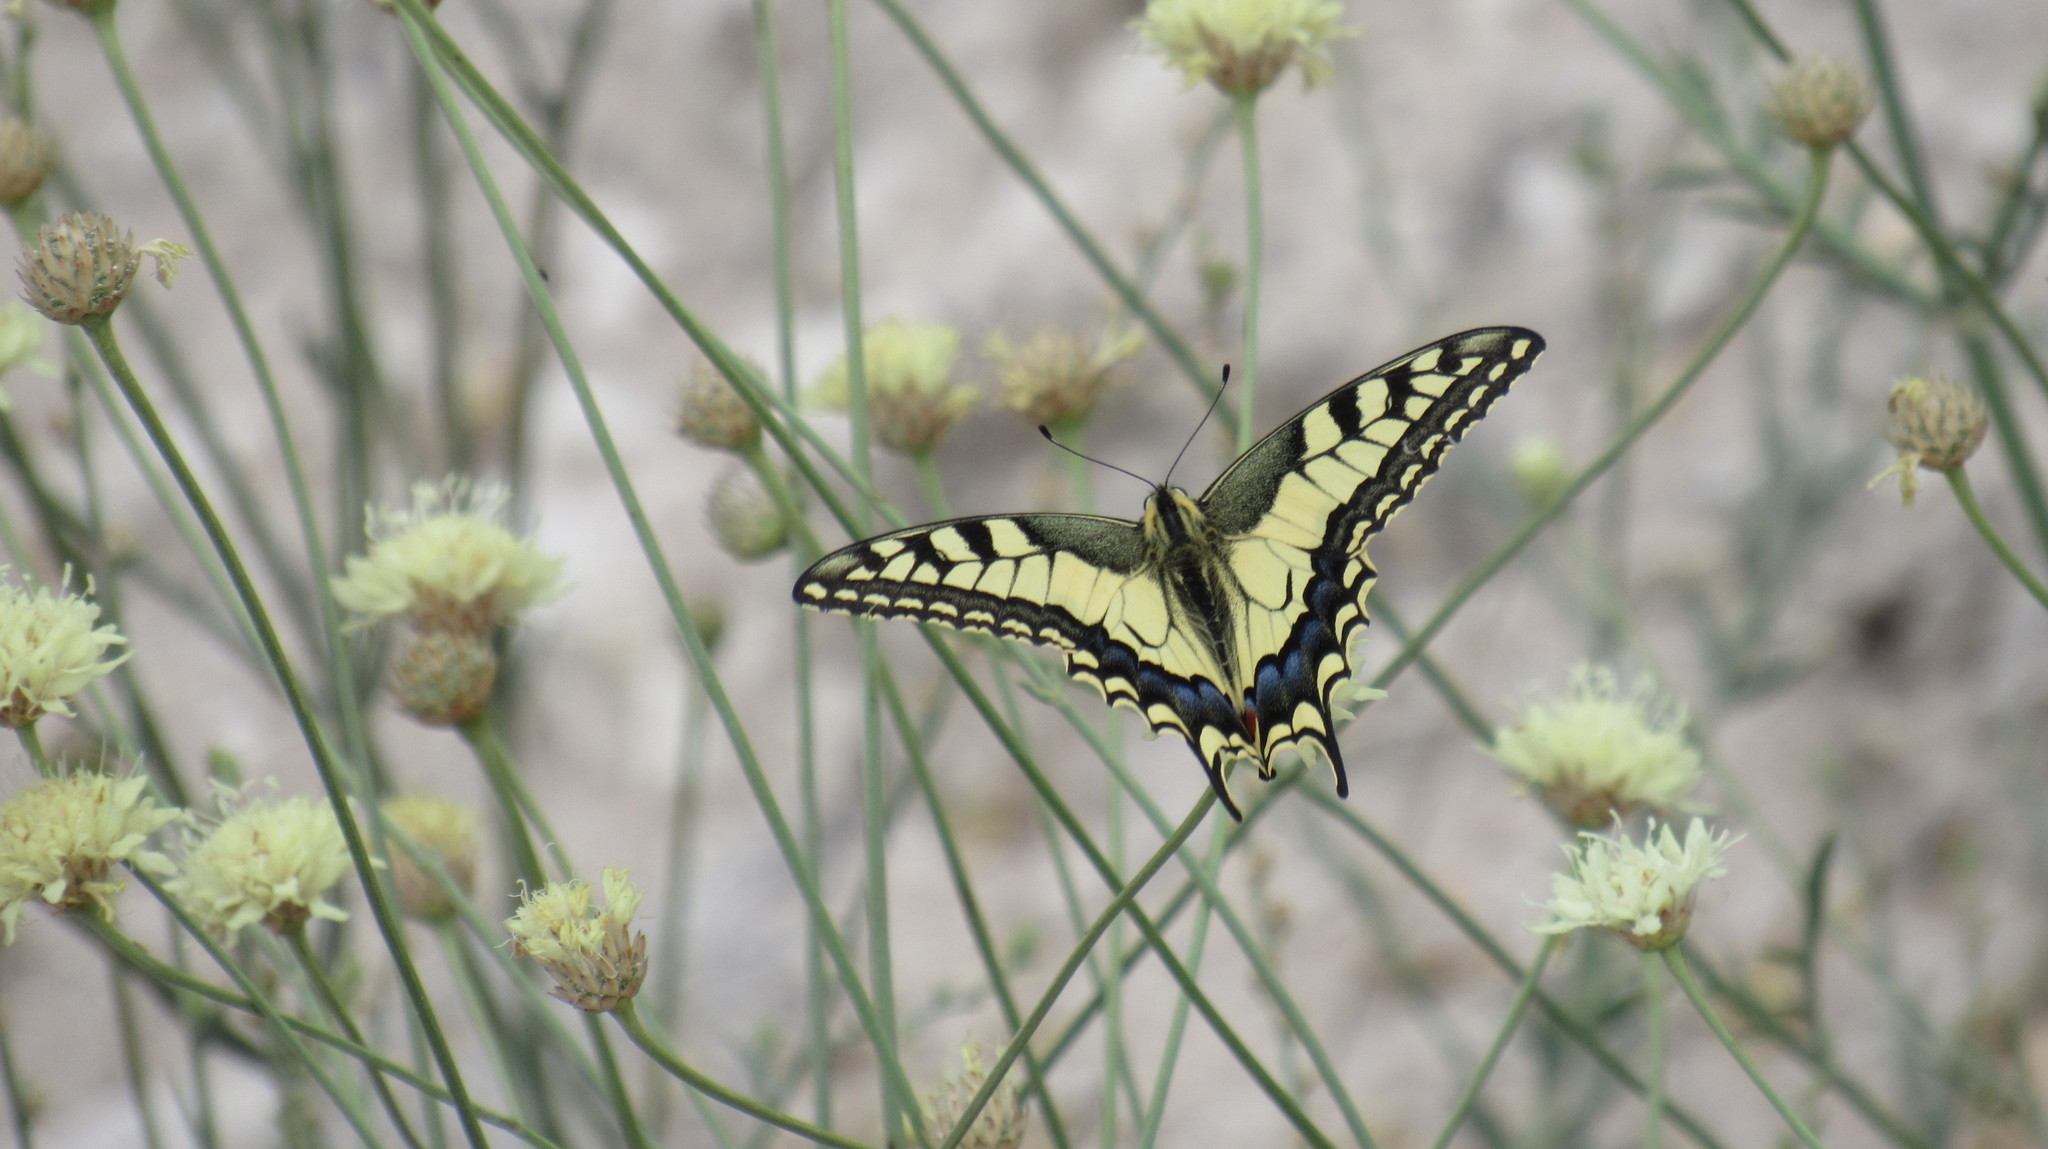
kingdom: Animalia
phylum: Arthropoda
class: Insecta
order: Lepidoptera
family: Papilionidae
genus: Papilio
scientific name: Papilio machaon
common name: Swallowtail
